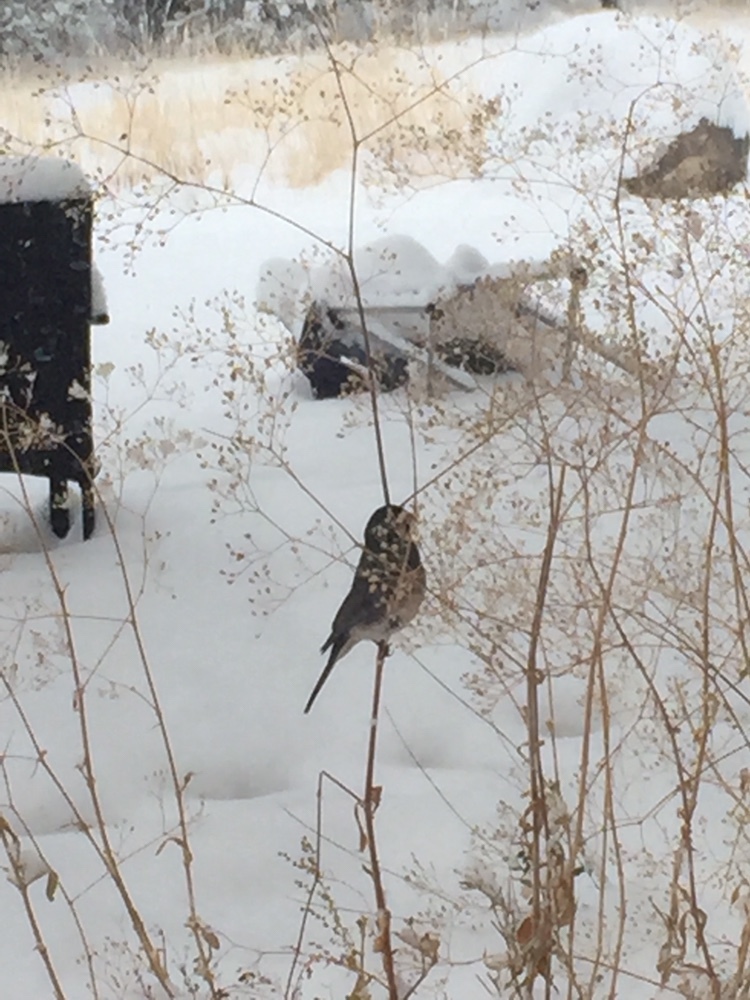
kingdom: Animalia
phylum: Chordata
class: Aves
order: Passeriformes
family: Passerellidae
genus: Junco
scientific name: Junco hyemalis
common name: Dark-eyed junco
